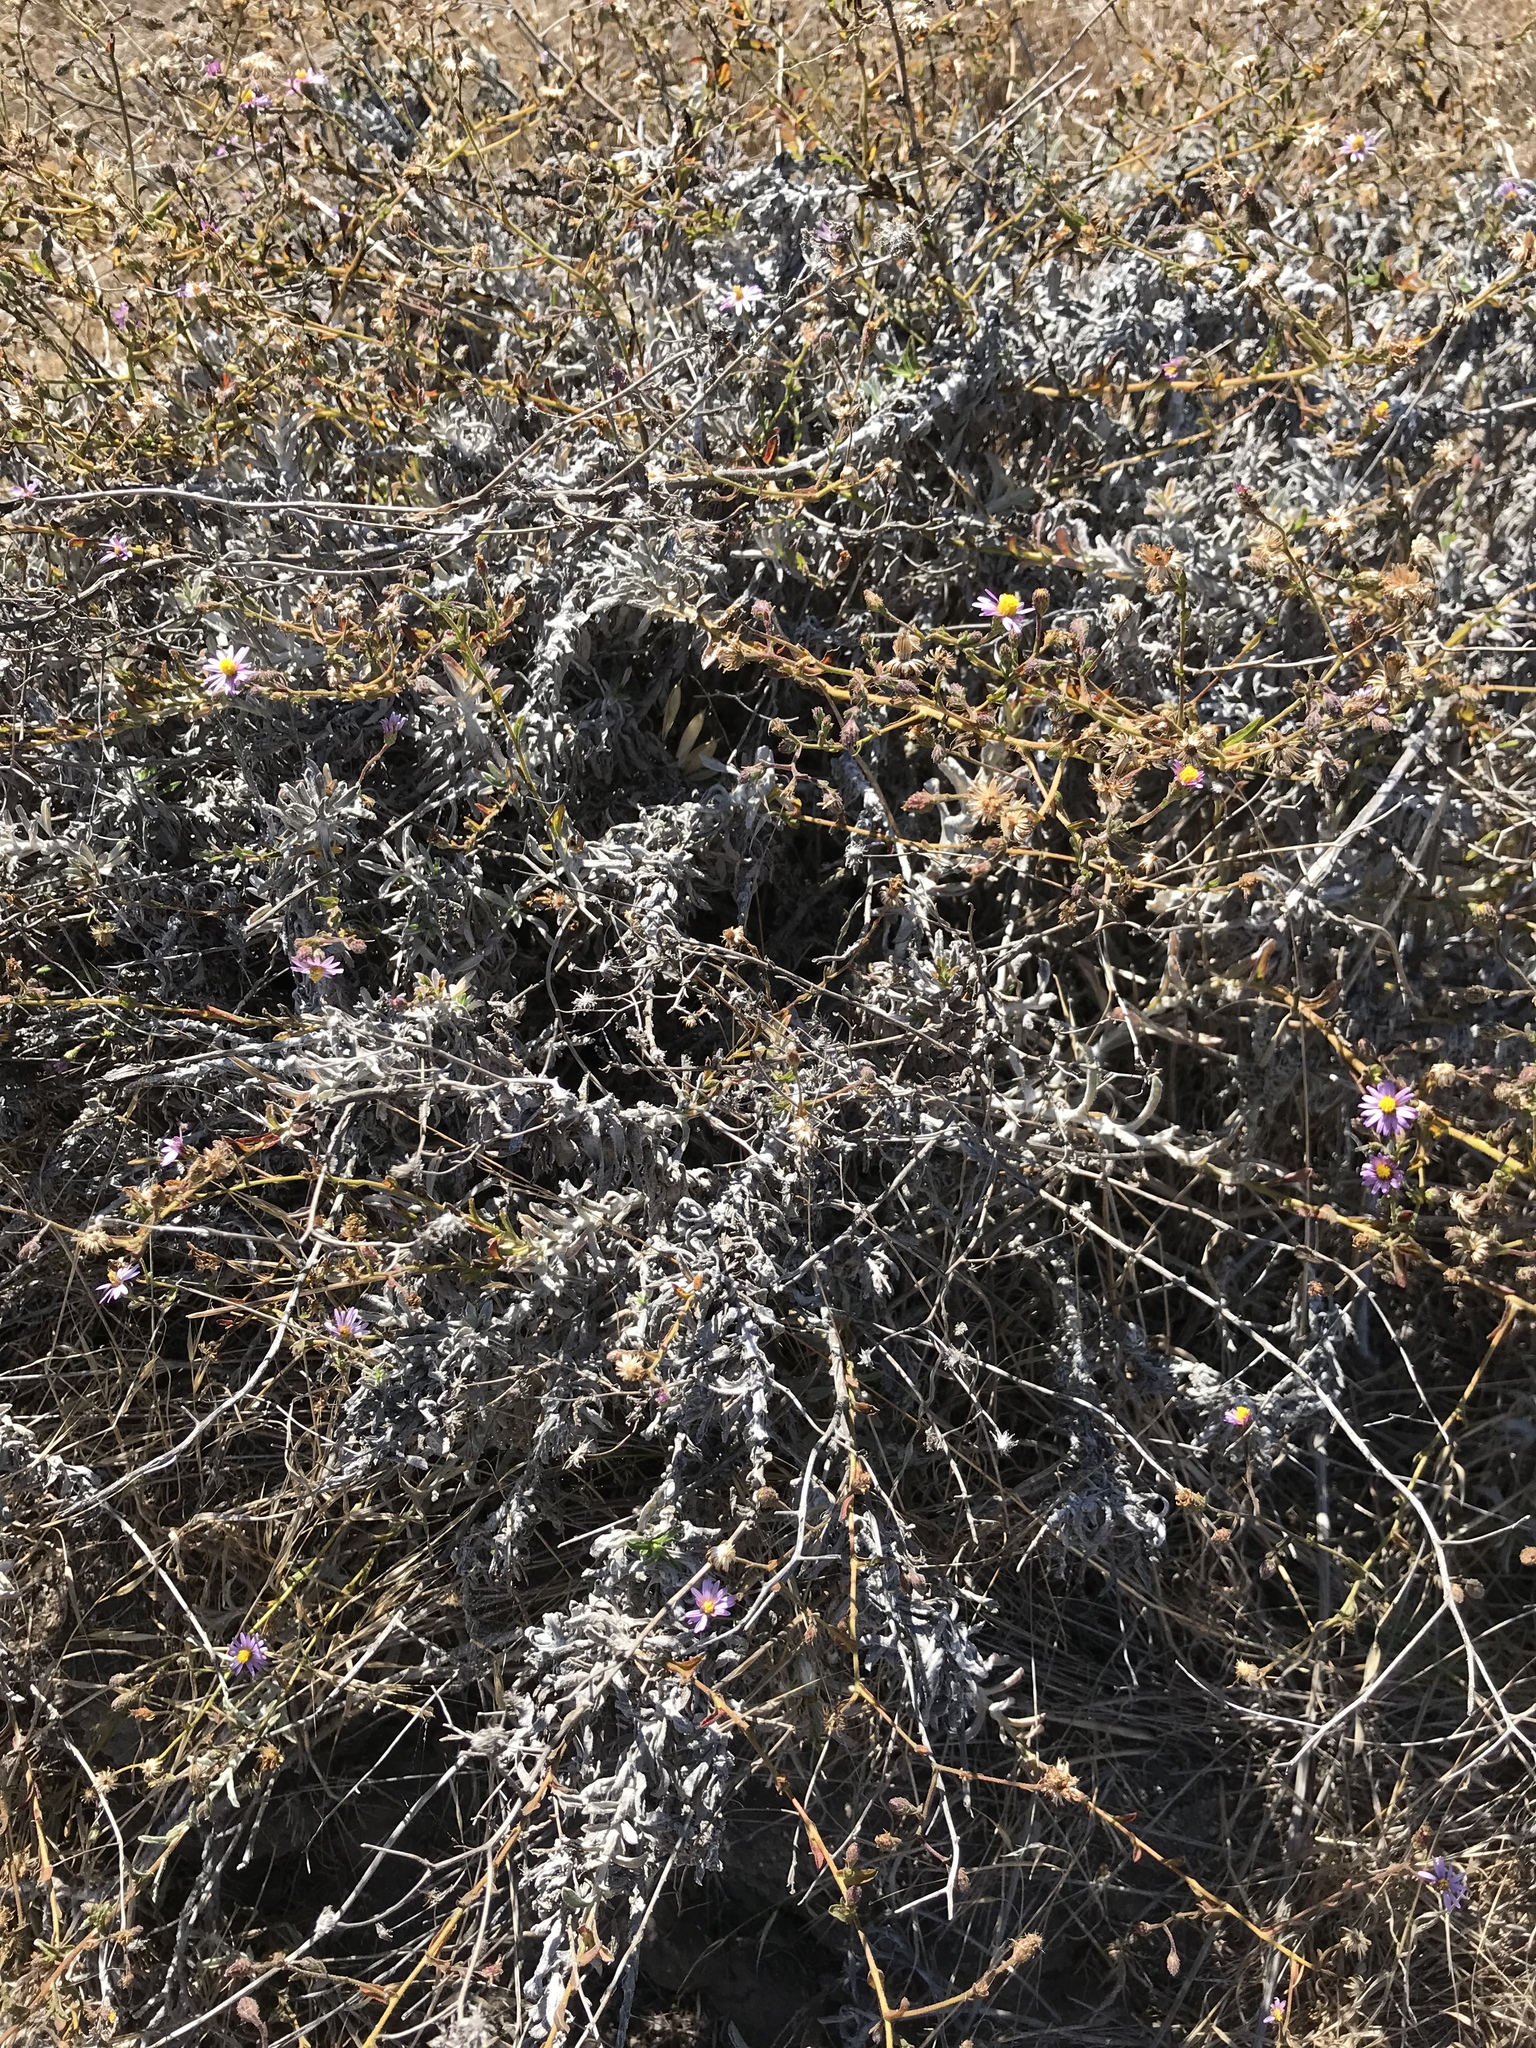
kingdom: Plantae
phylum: Tracheophyta
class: Magnoliopsida
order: Asterales
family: Asteraceae
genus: Corethrogyne
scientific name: Corethrogyne filaginifolia
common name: Sand-aster
